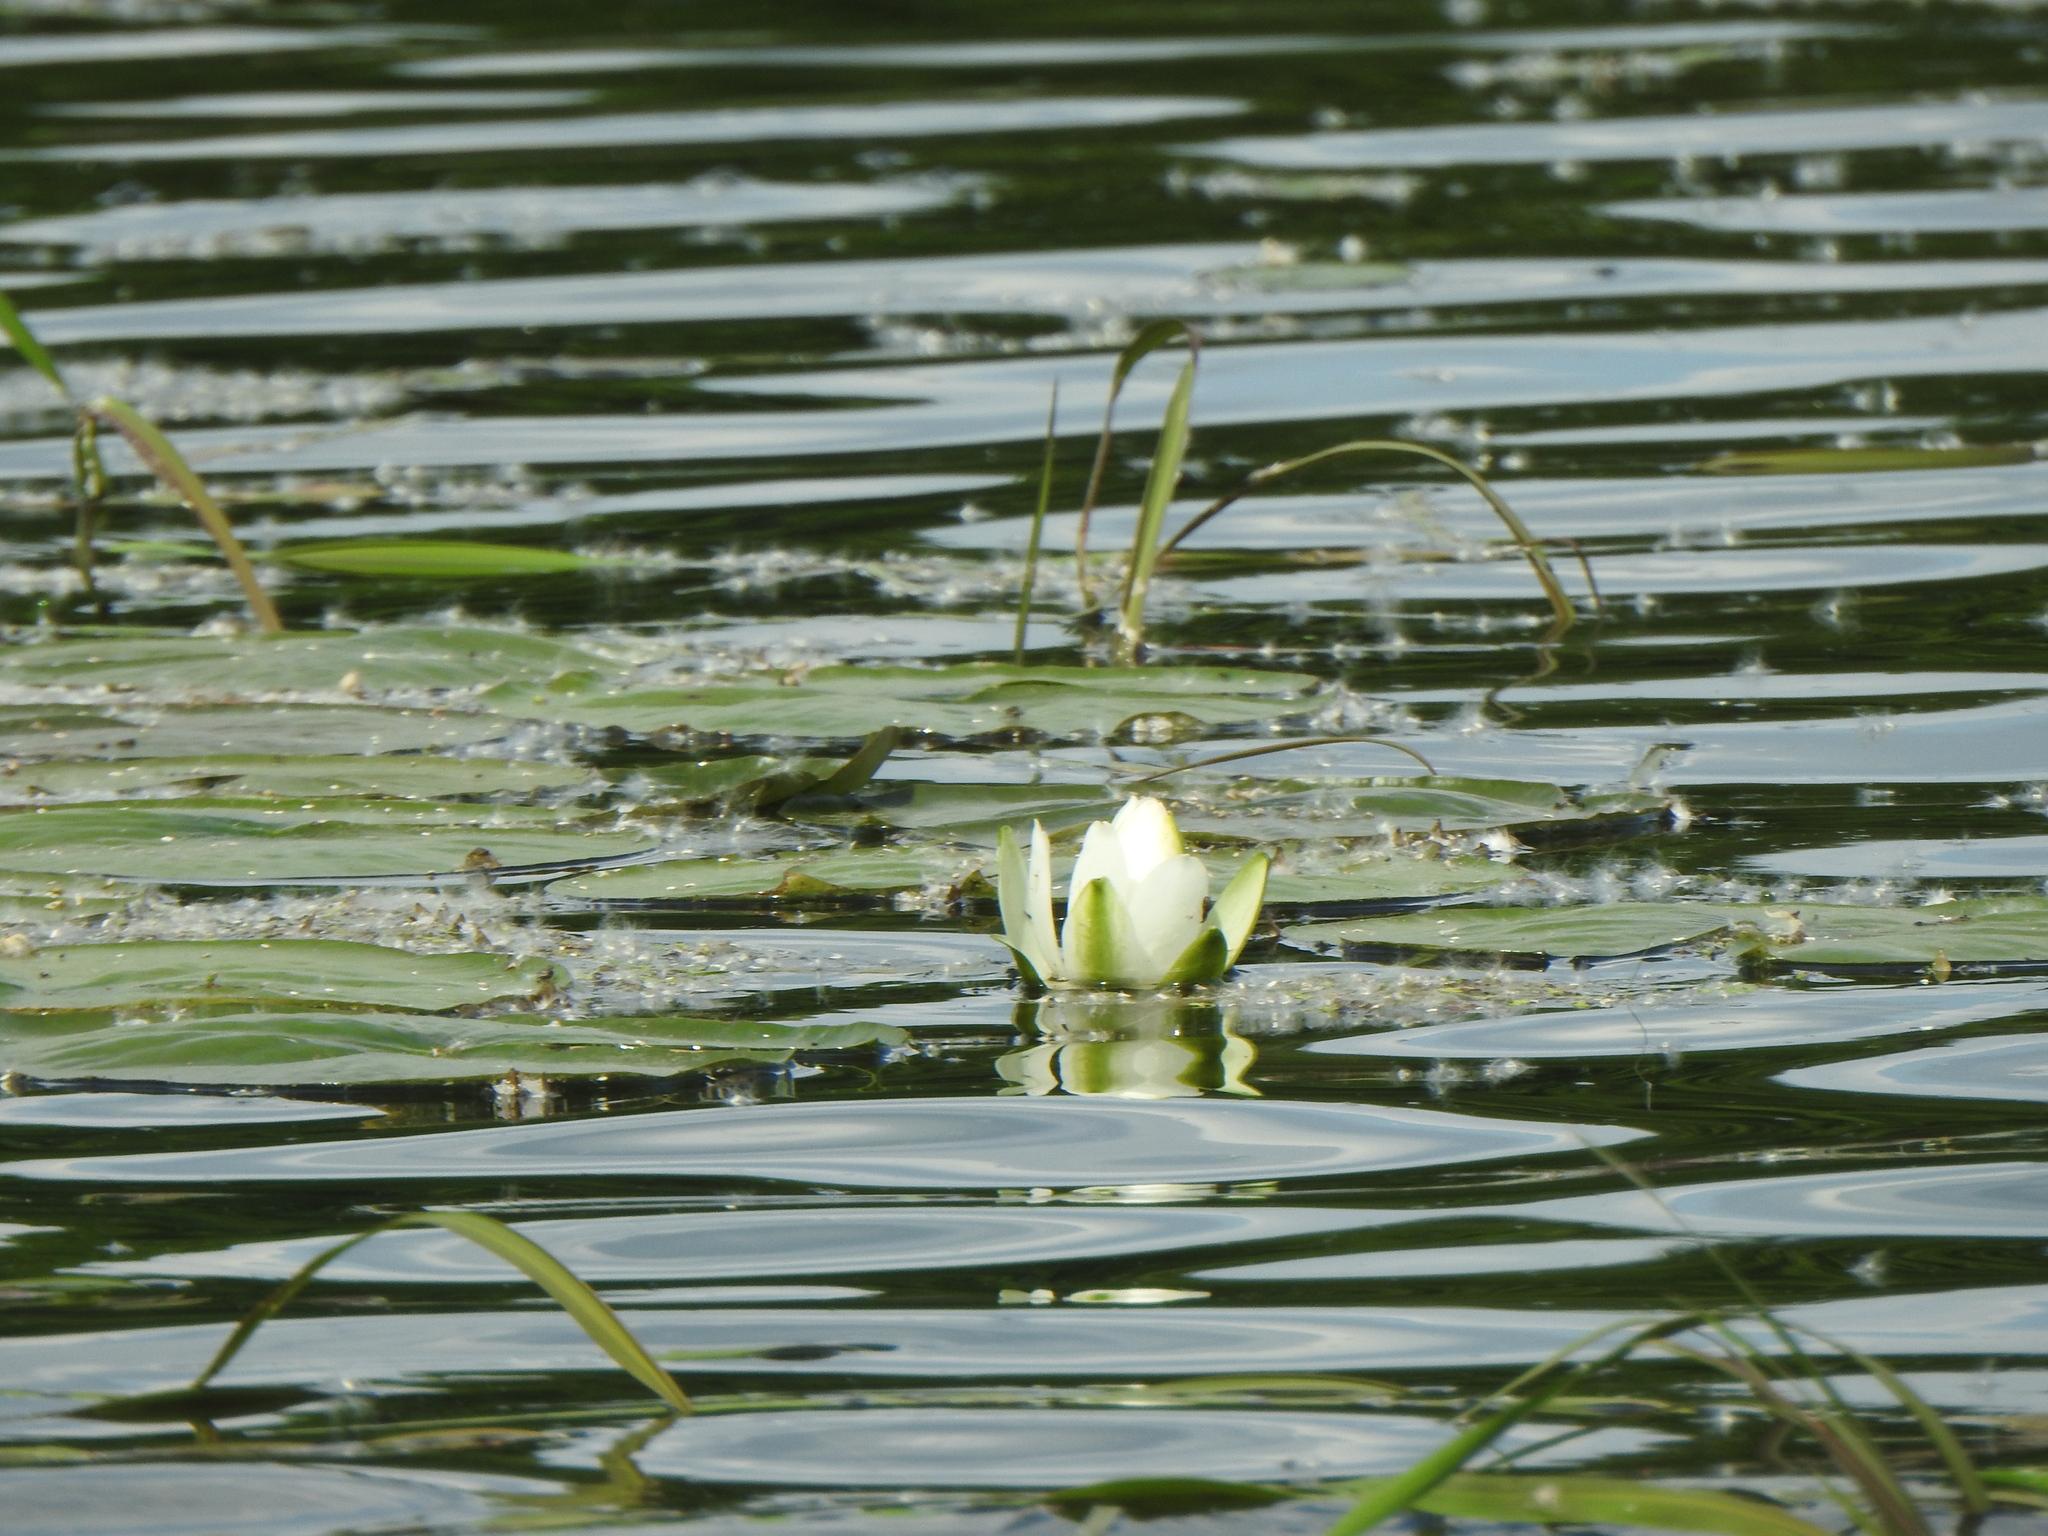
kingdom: Plantae
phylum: Tracheophyta
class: Magnoliopsida
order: Nymphaeales
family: Nymphaeaceae
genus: Nymphaea
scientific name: Nymphaea odorata
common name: Fragrant water-lily
